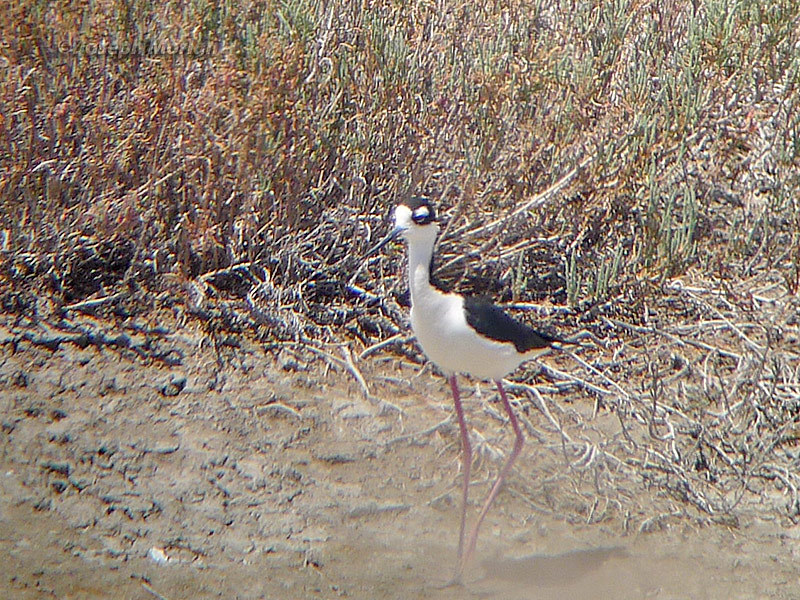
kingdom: Animalia
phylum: Chordata
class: Aves
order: Charadriiformes
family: Recurvirostridae
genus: Himantopus
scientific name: Himantopus mexicanus
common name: Black-necked stilt
